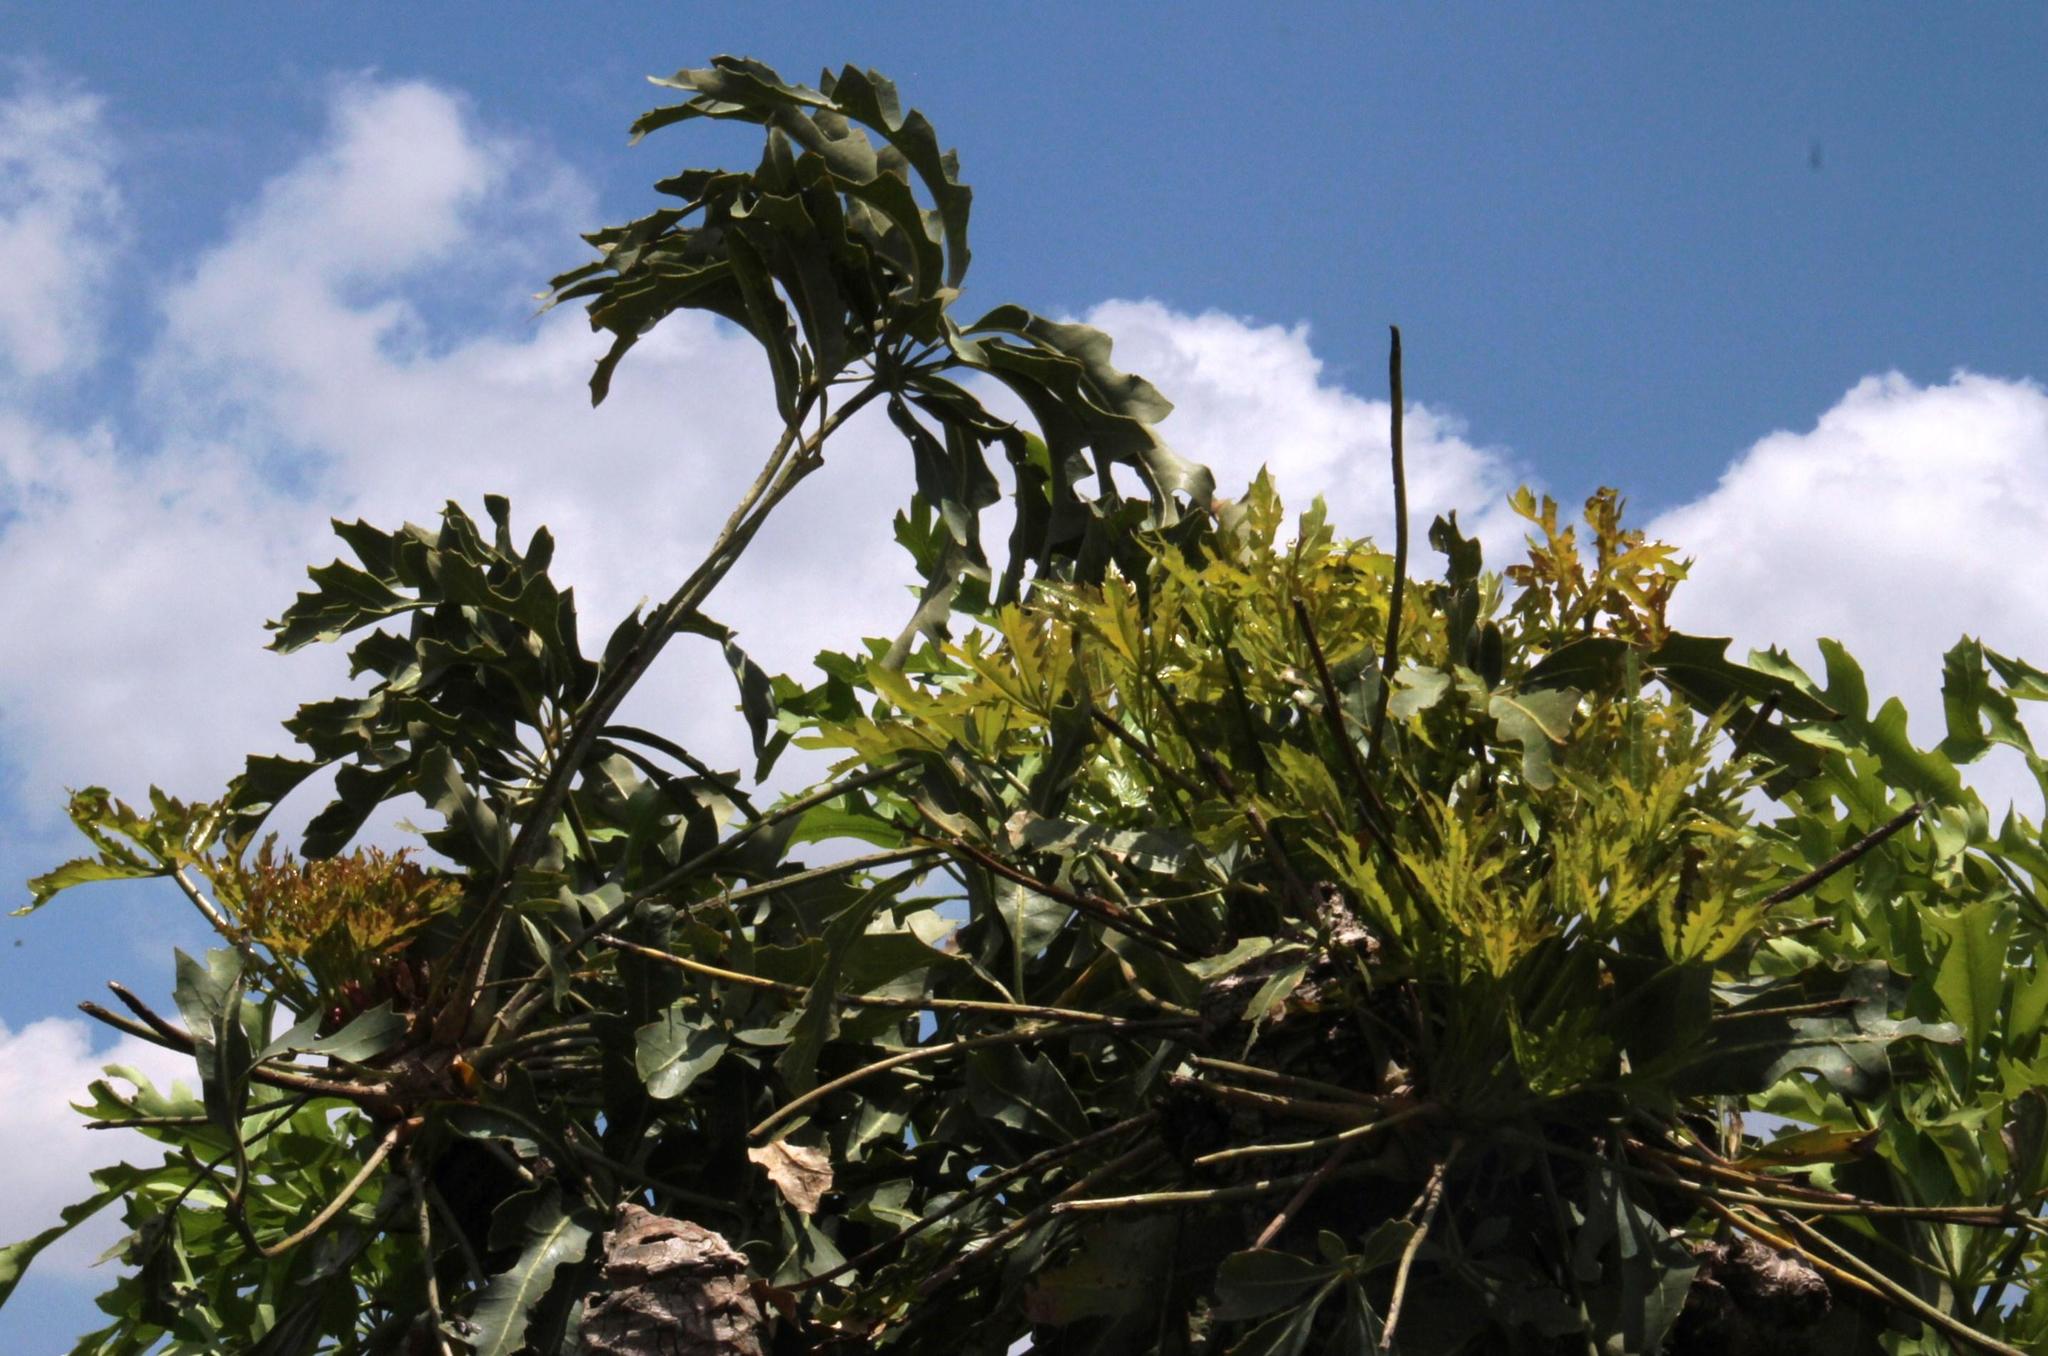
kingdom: Plantae
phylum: Tracheophyta
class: Magnoliopsida
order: Apiales
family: Araliaceae
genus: Cussonia
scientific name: Cussonia paniculata
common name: Cabbagetree
